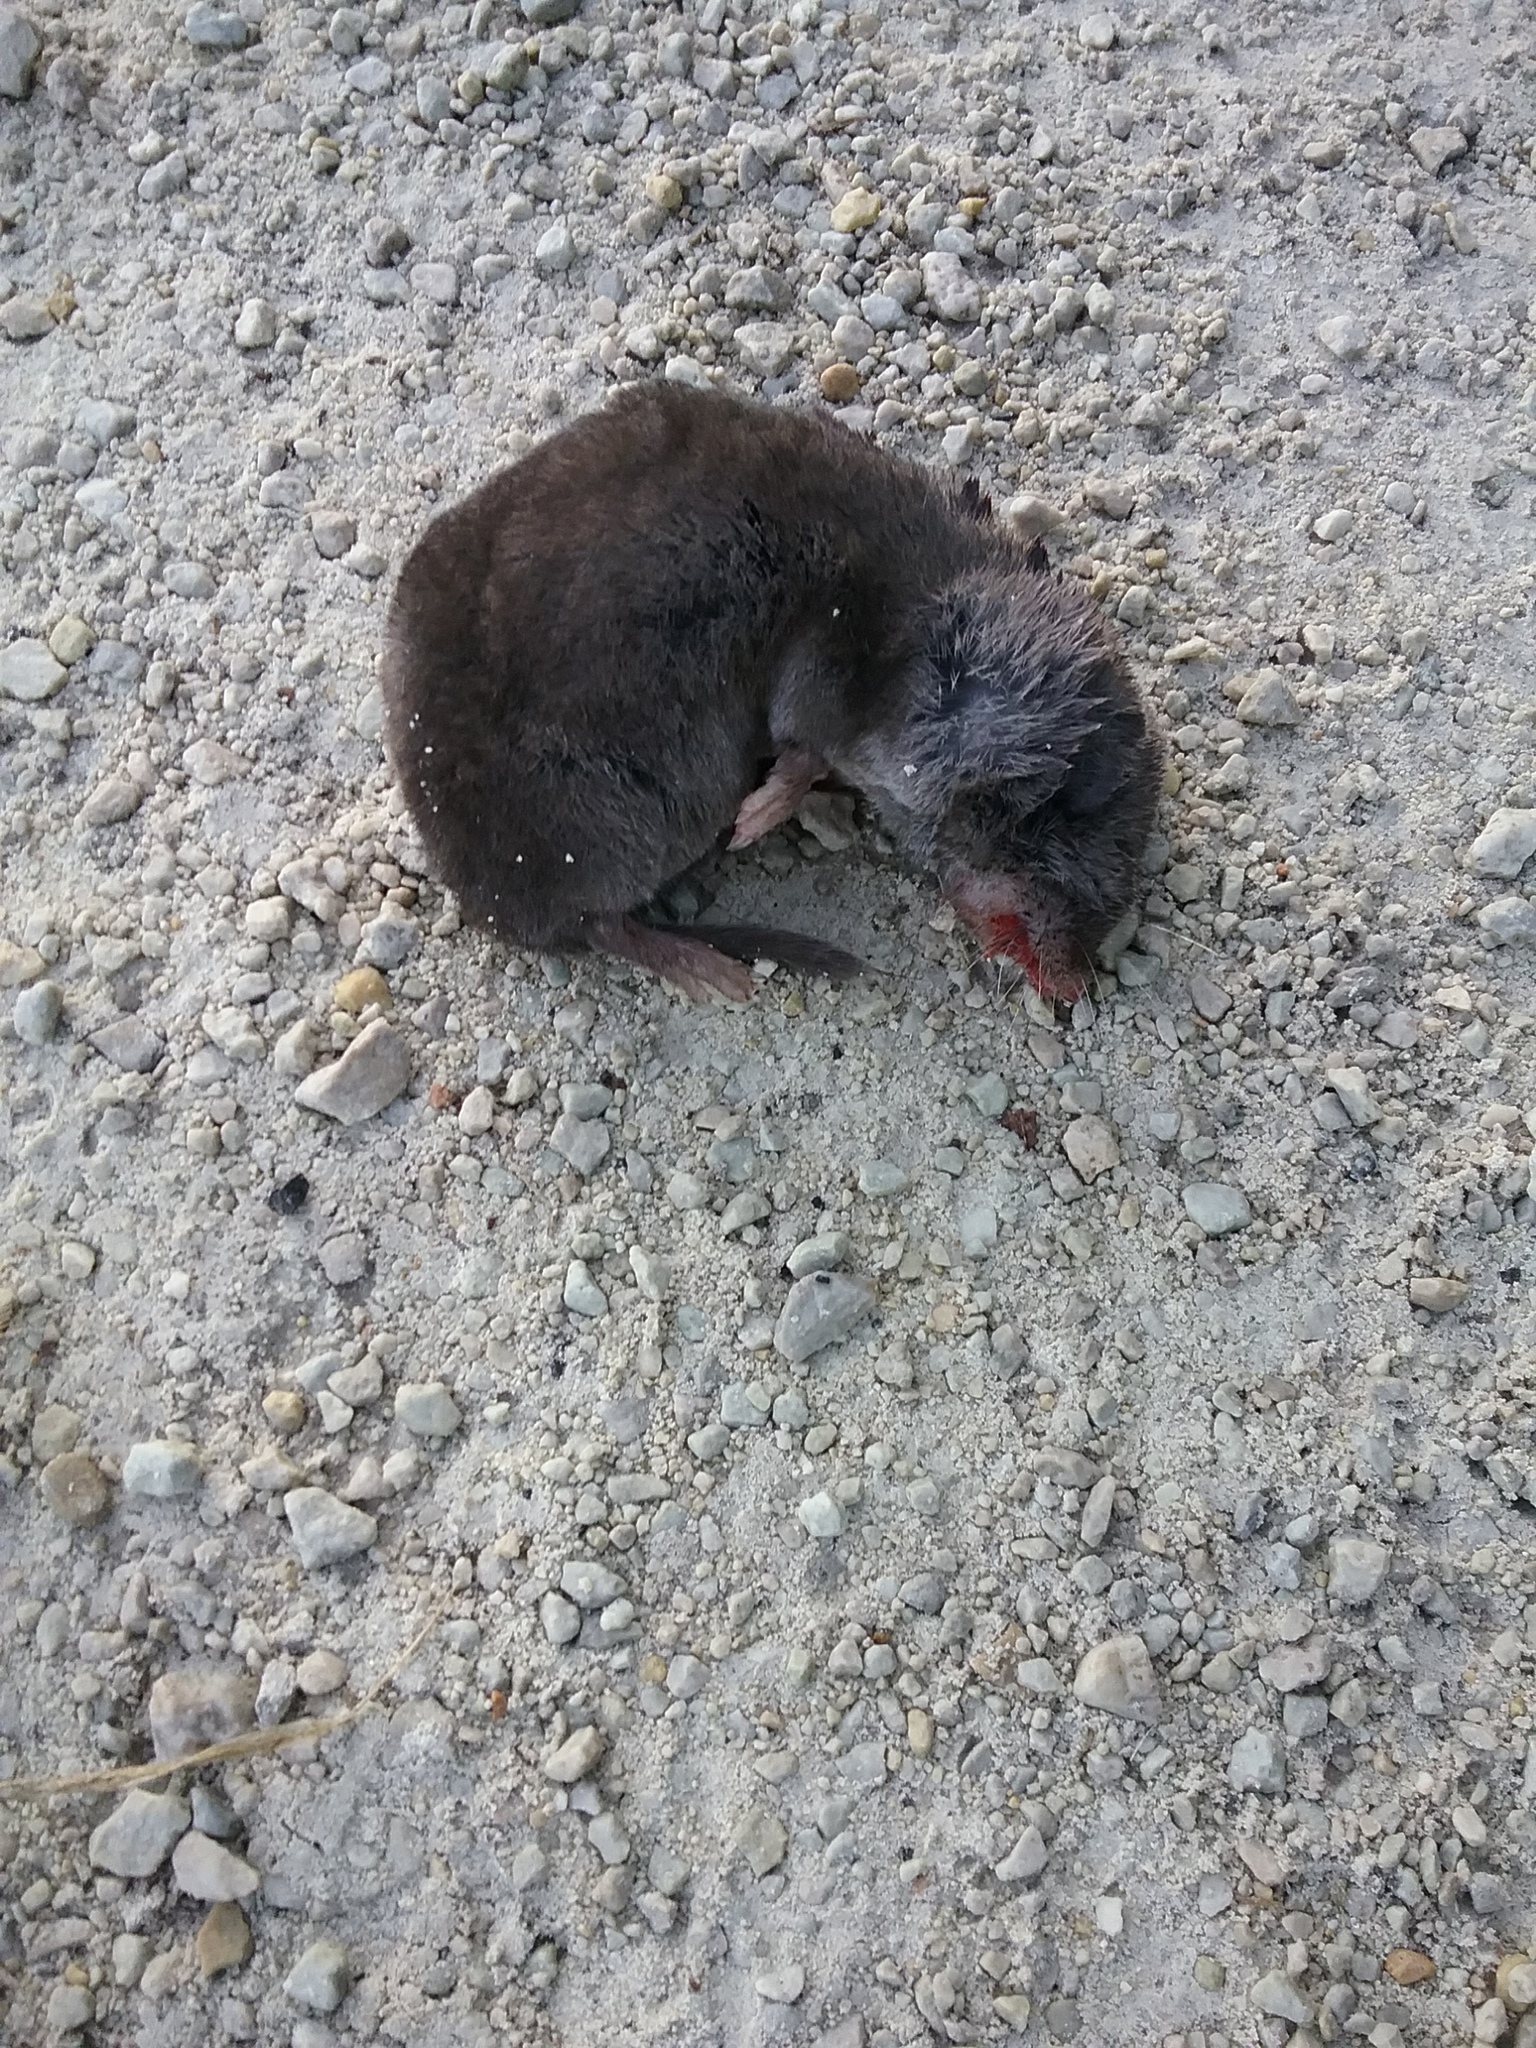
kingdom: Animalia
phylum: Chordata
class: Mammalia
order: Soricomorpha
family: Soricidae
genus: Blarina
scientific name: Blarina brevicauda
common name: Northern short-tailed shrew
